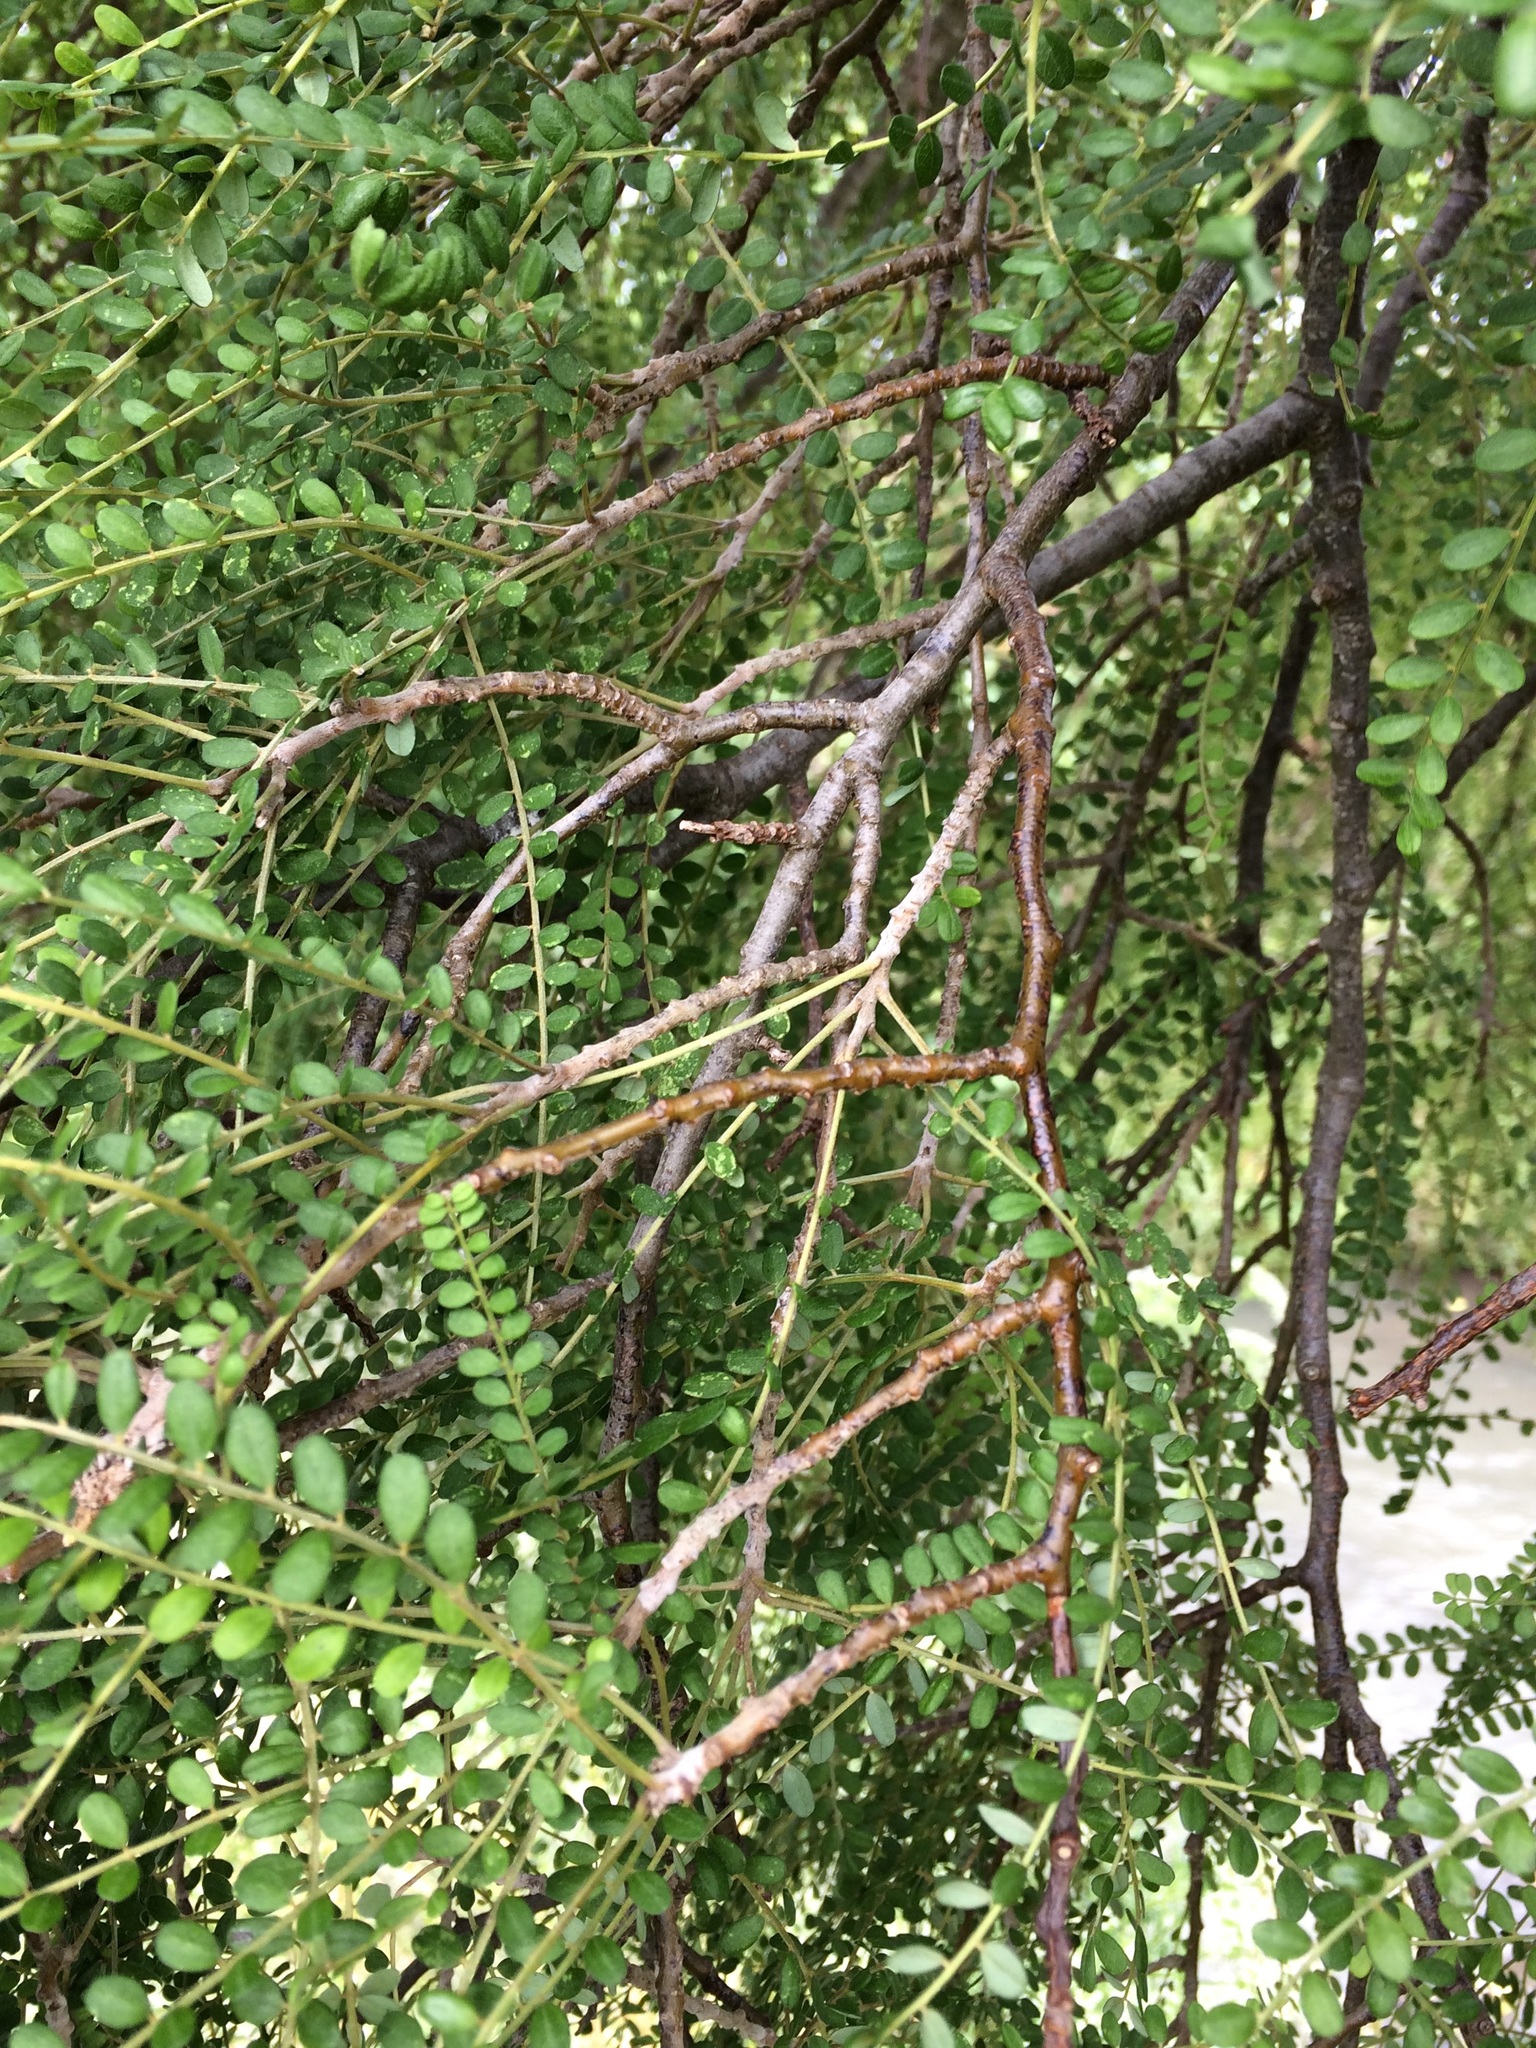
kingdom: Plantae
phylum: Tracheophyta
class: Magnoliopsida
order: Fabales
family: Fabaceae
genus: Sophora
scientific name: Sophora microphylla
